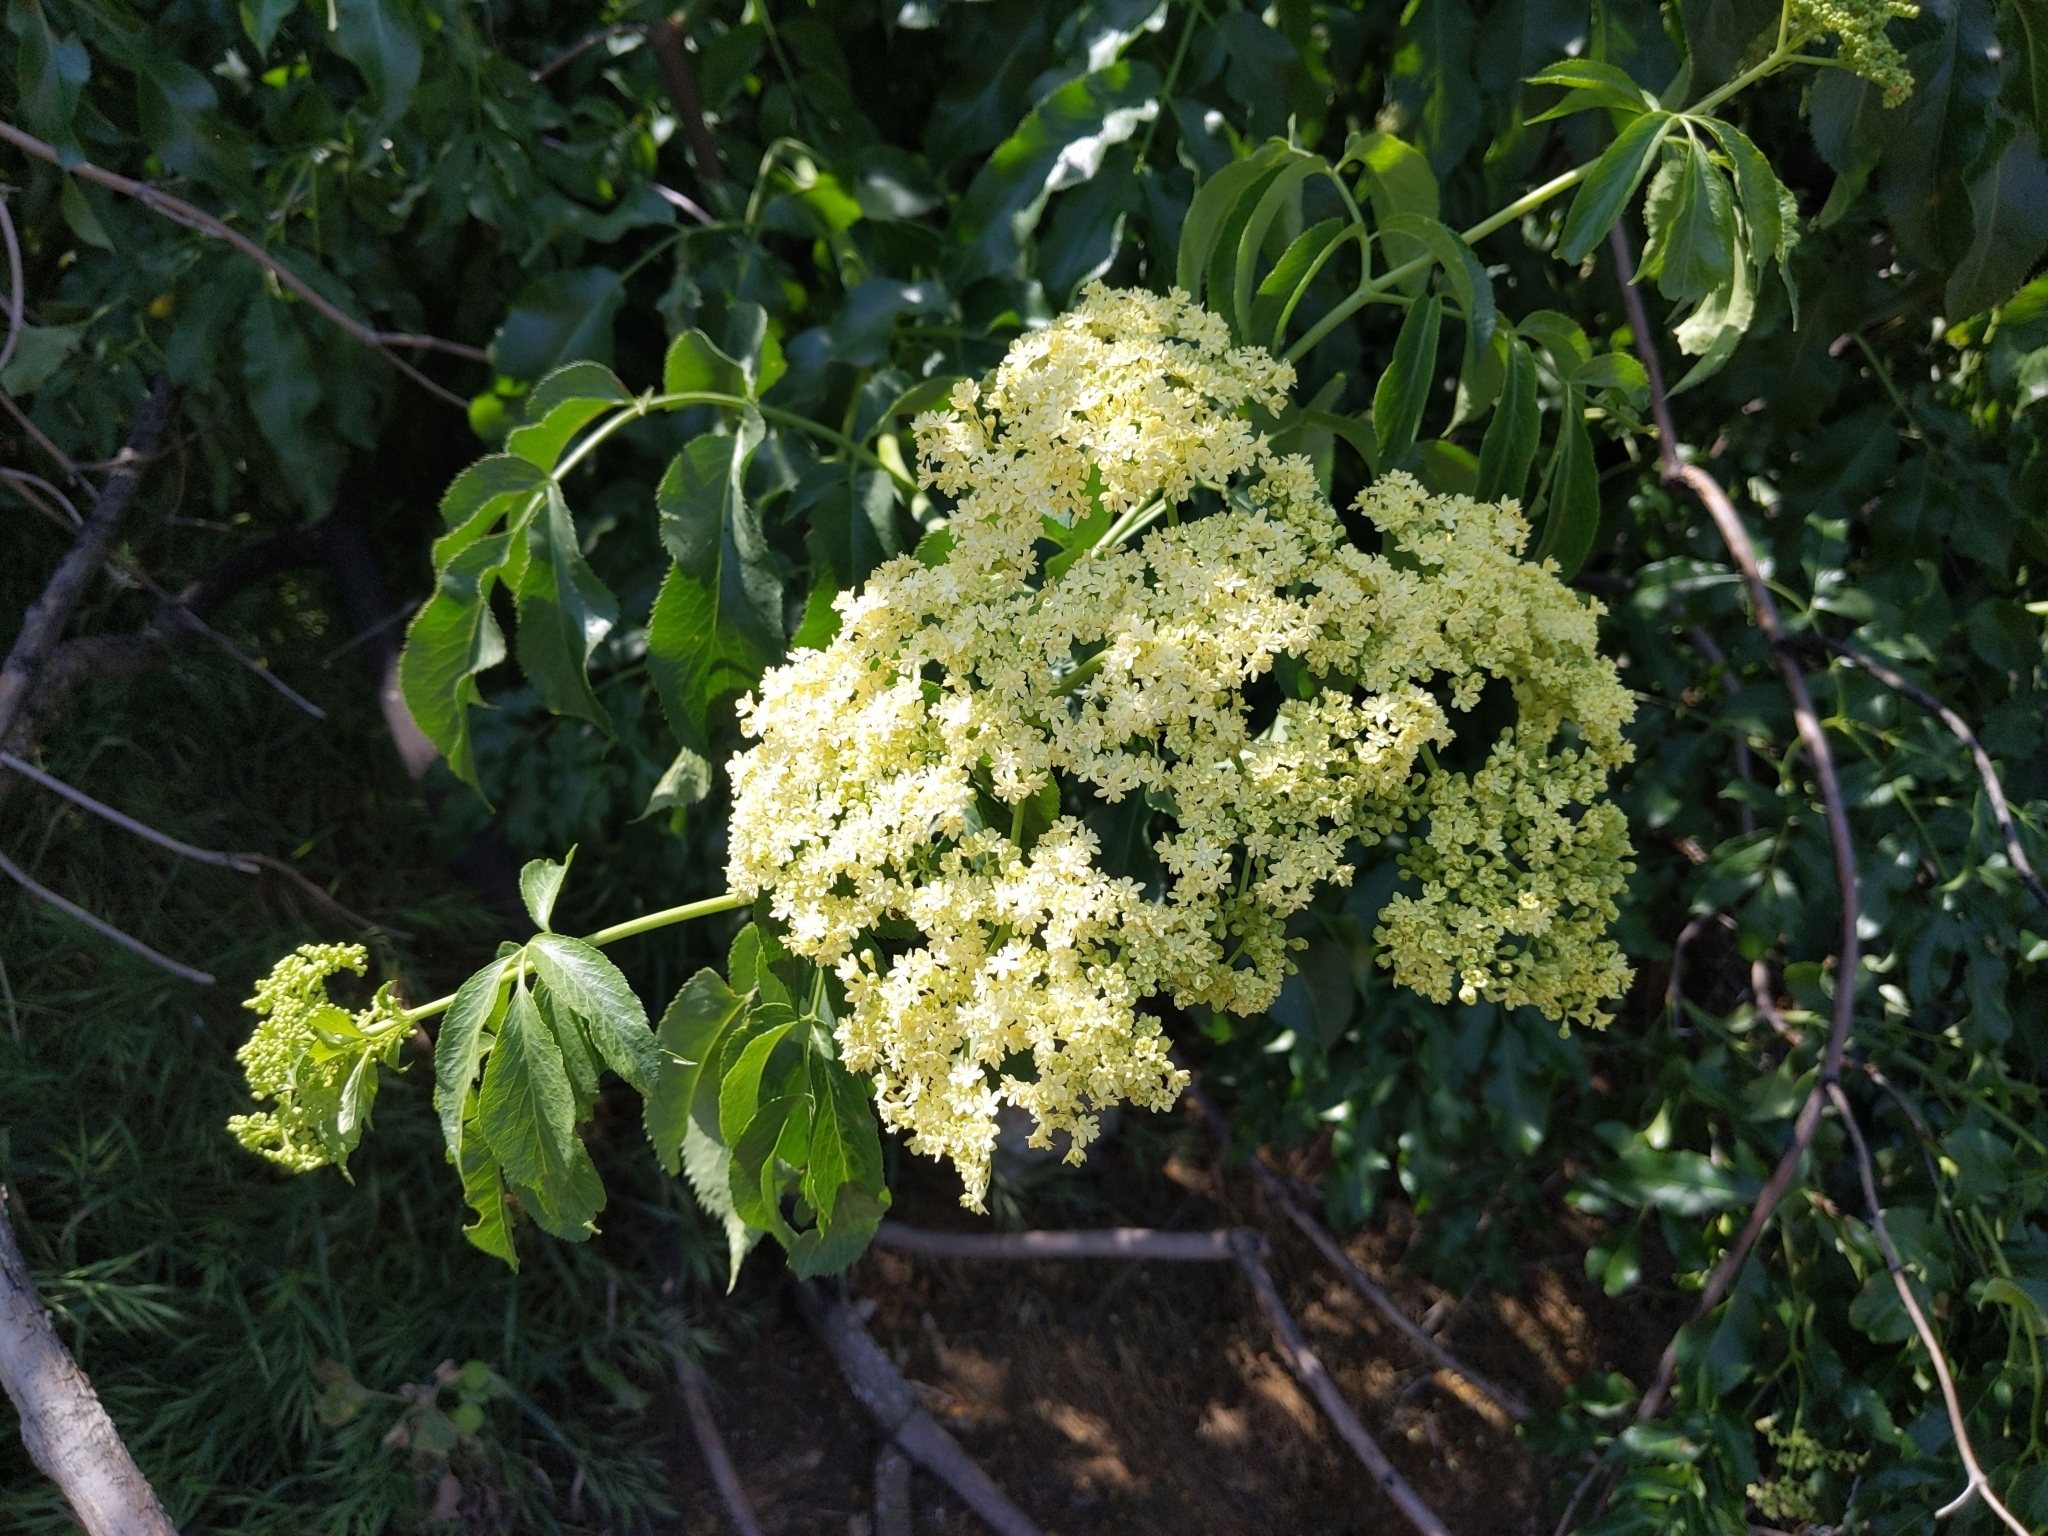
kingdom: Plantae
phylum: Tracheophyta
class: Magnoliopsida
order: Dipsacales
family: Viburnaceae
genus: Sambucus
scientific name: Sambucus cerulea
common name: Blue elder
